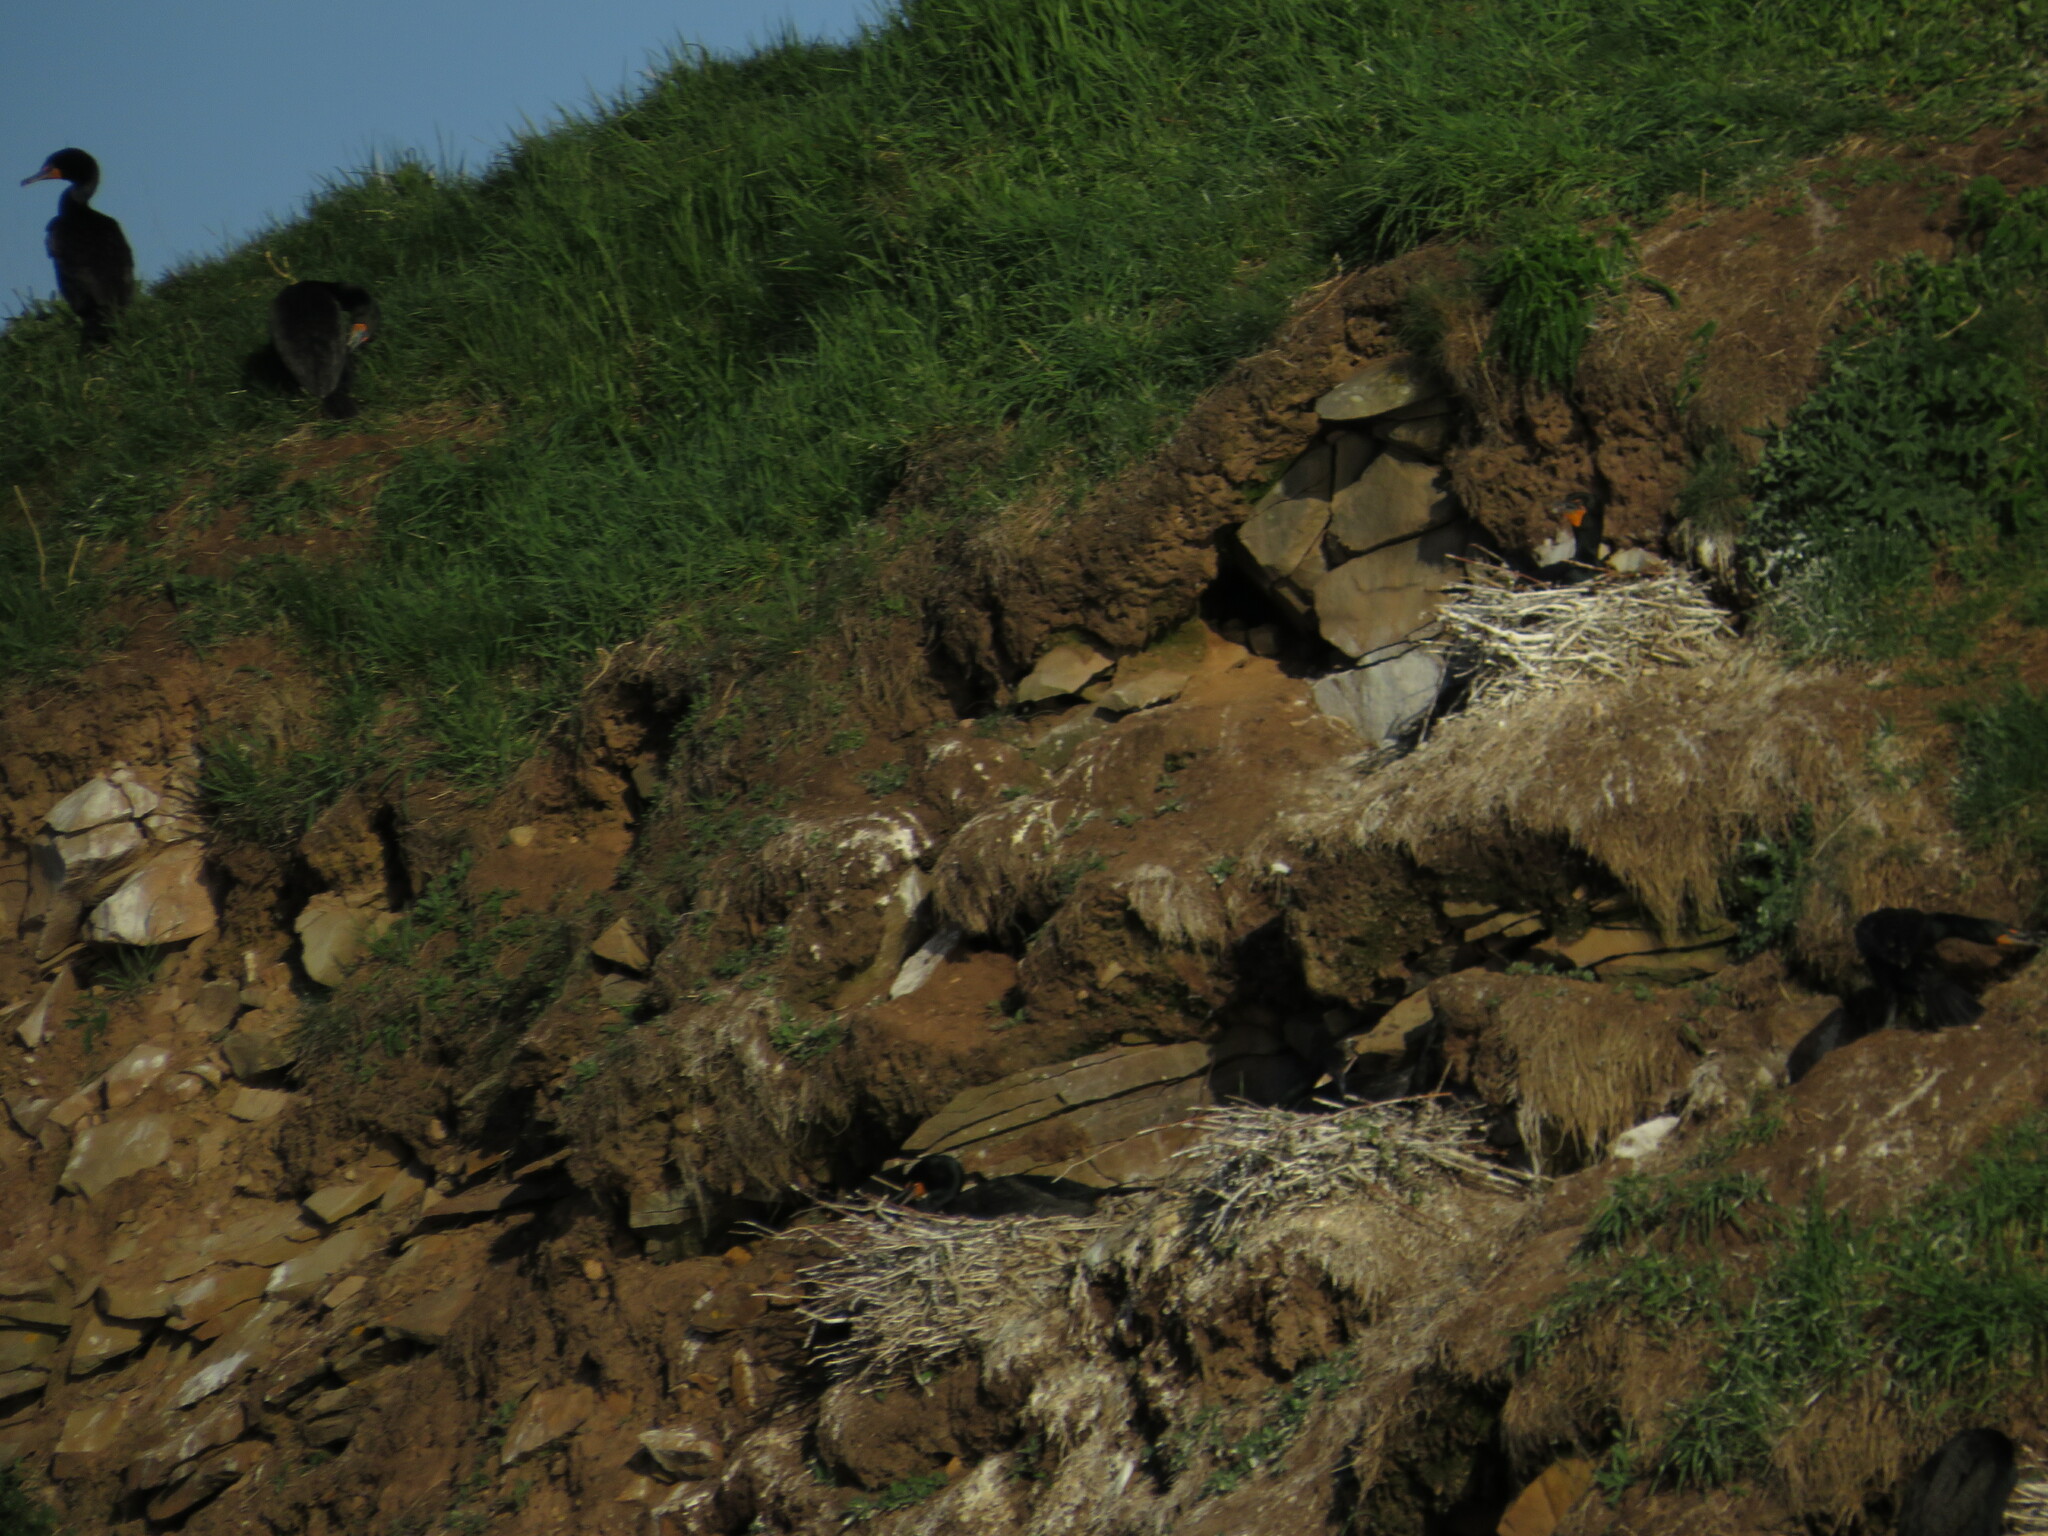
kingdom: Animalia
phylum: Chordata
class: Aves
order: Suliformes
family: Phalacrocoracidae
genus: Phalacrocorax
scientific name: Phalacrocorax auritus
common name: Double-crested cormorant
